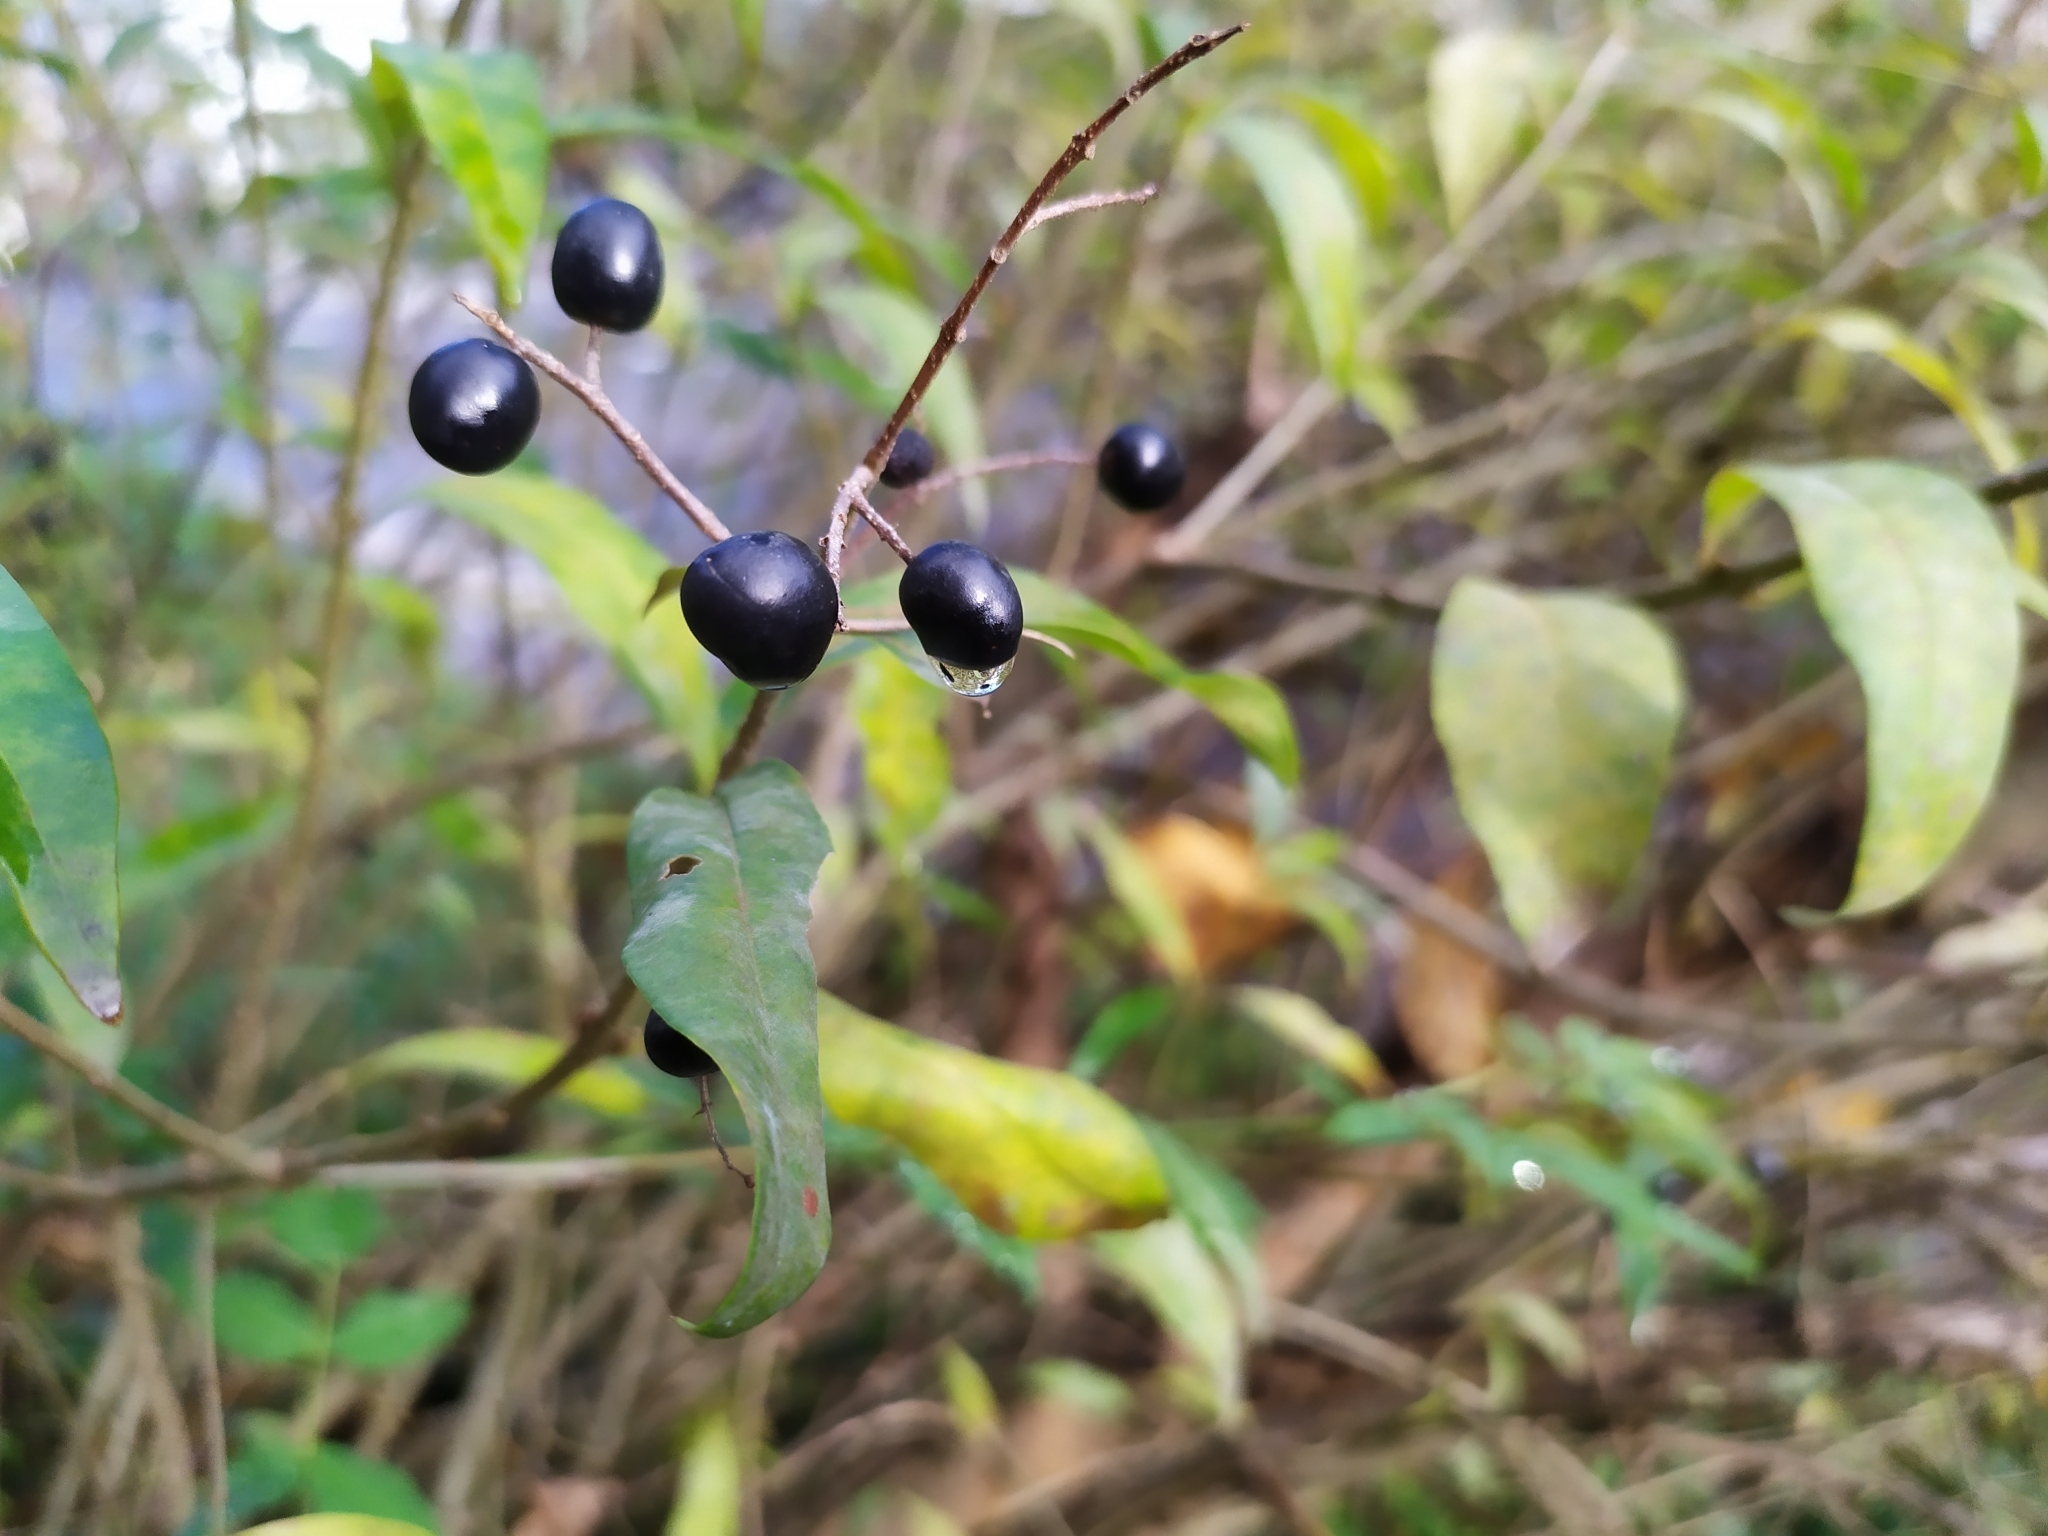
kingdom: Plantae
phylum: Tracheophyta
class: Magnoliopsida
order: Lamiales
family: Oleaceae
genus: Ligustrum
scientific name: Ligustrum vulgare
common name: Wild privet
